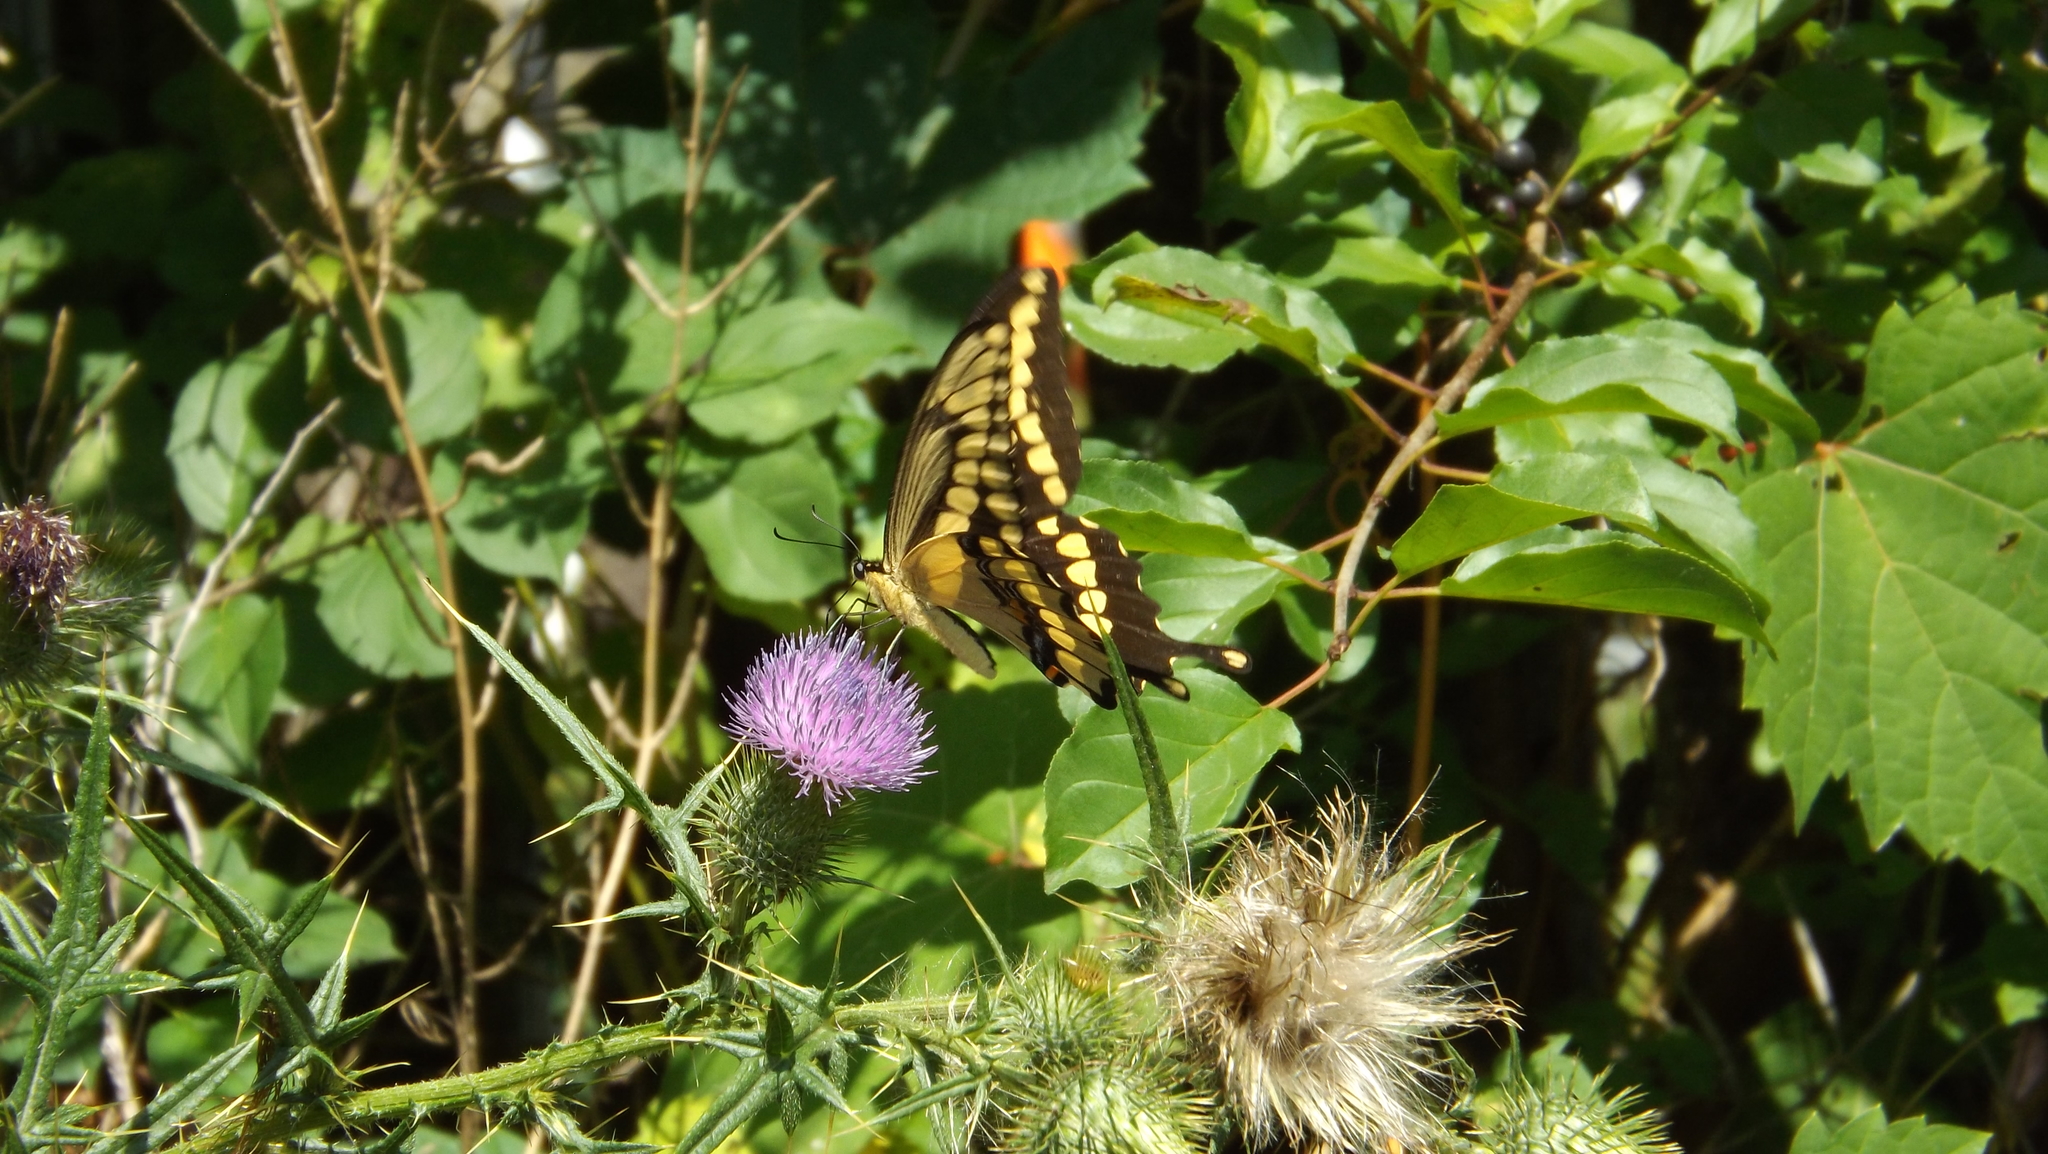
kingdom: Animalia
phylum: Arthropoda
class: Insecta
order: Lepidoptera
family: Papilionidae
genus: Papilio
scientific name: Papilio cresphontes
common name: Giant swallowtail
